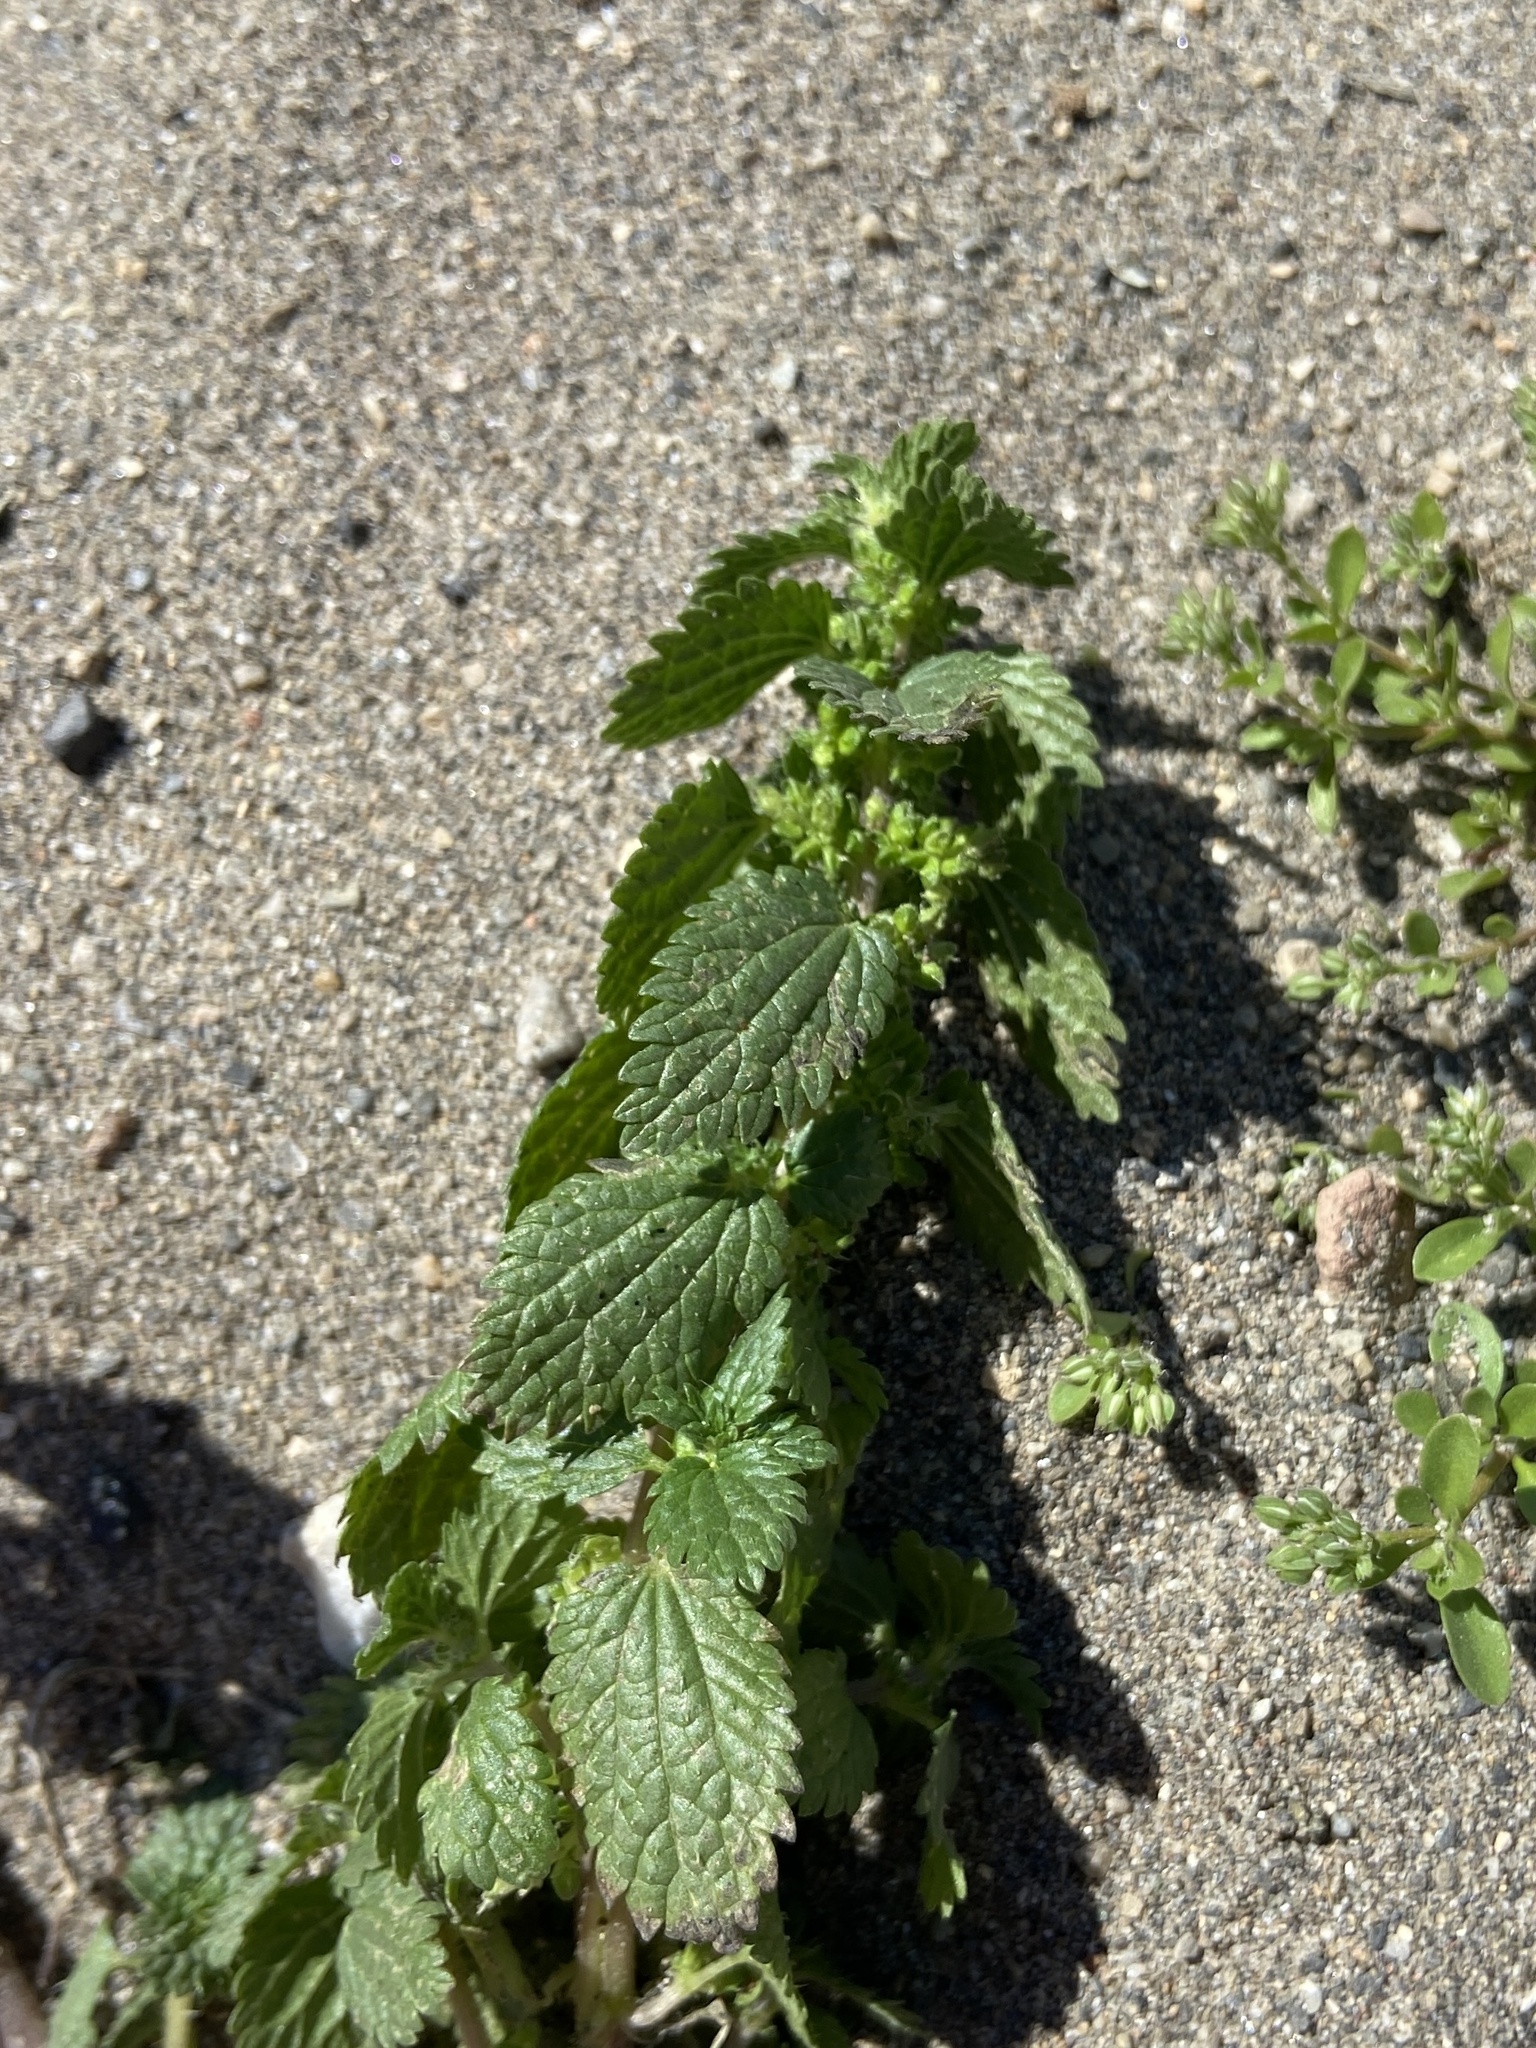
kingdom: Plantae
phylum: Tracheophyta
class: Magnoliopsida
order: Rosales
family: Urticaceae
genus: Urtica
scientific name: Urtica urens
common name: Dwarf nettle
